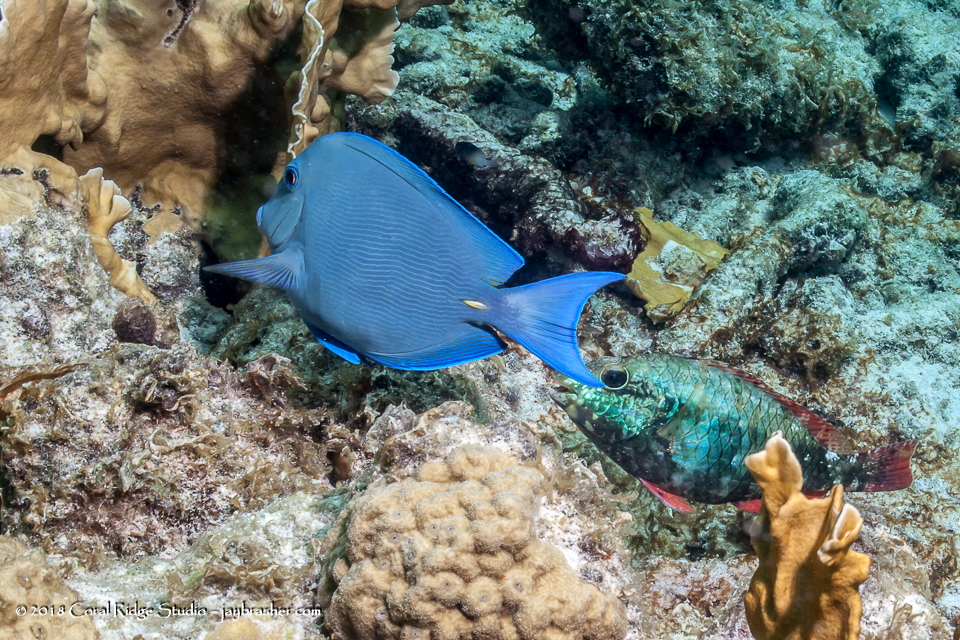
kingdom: Animalia
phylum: Chordata
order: Perciformes
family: Scaridae
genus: Sparisoma
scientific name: Sparisoma aurofrenatum
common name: Redband parrotfish
